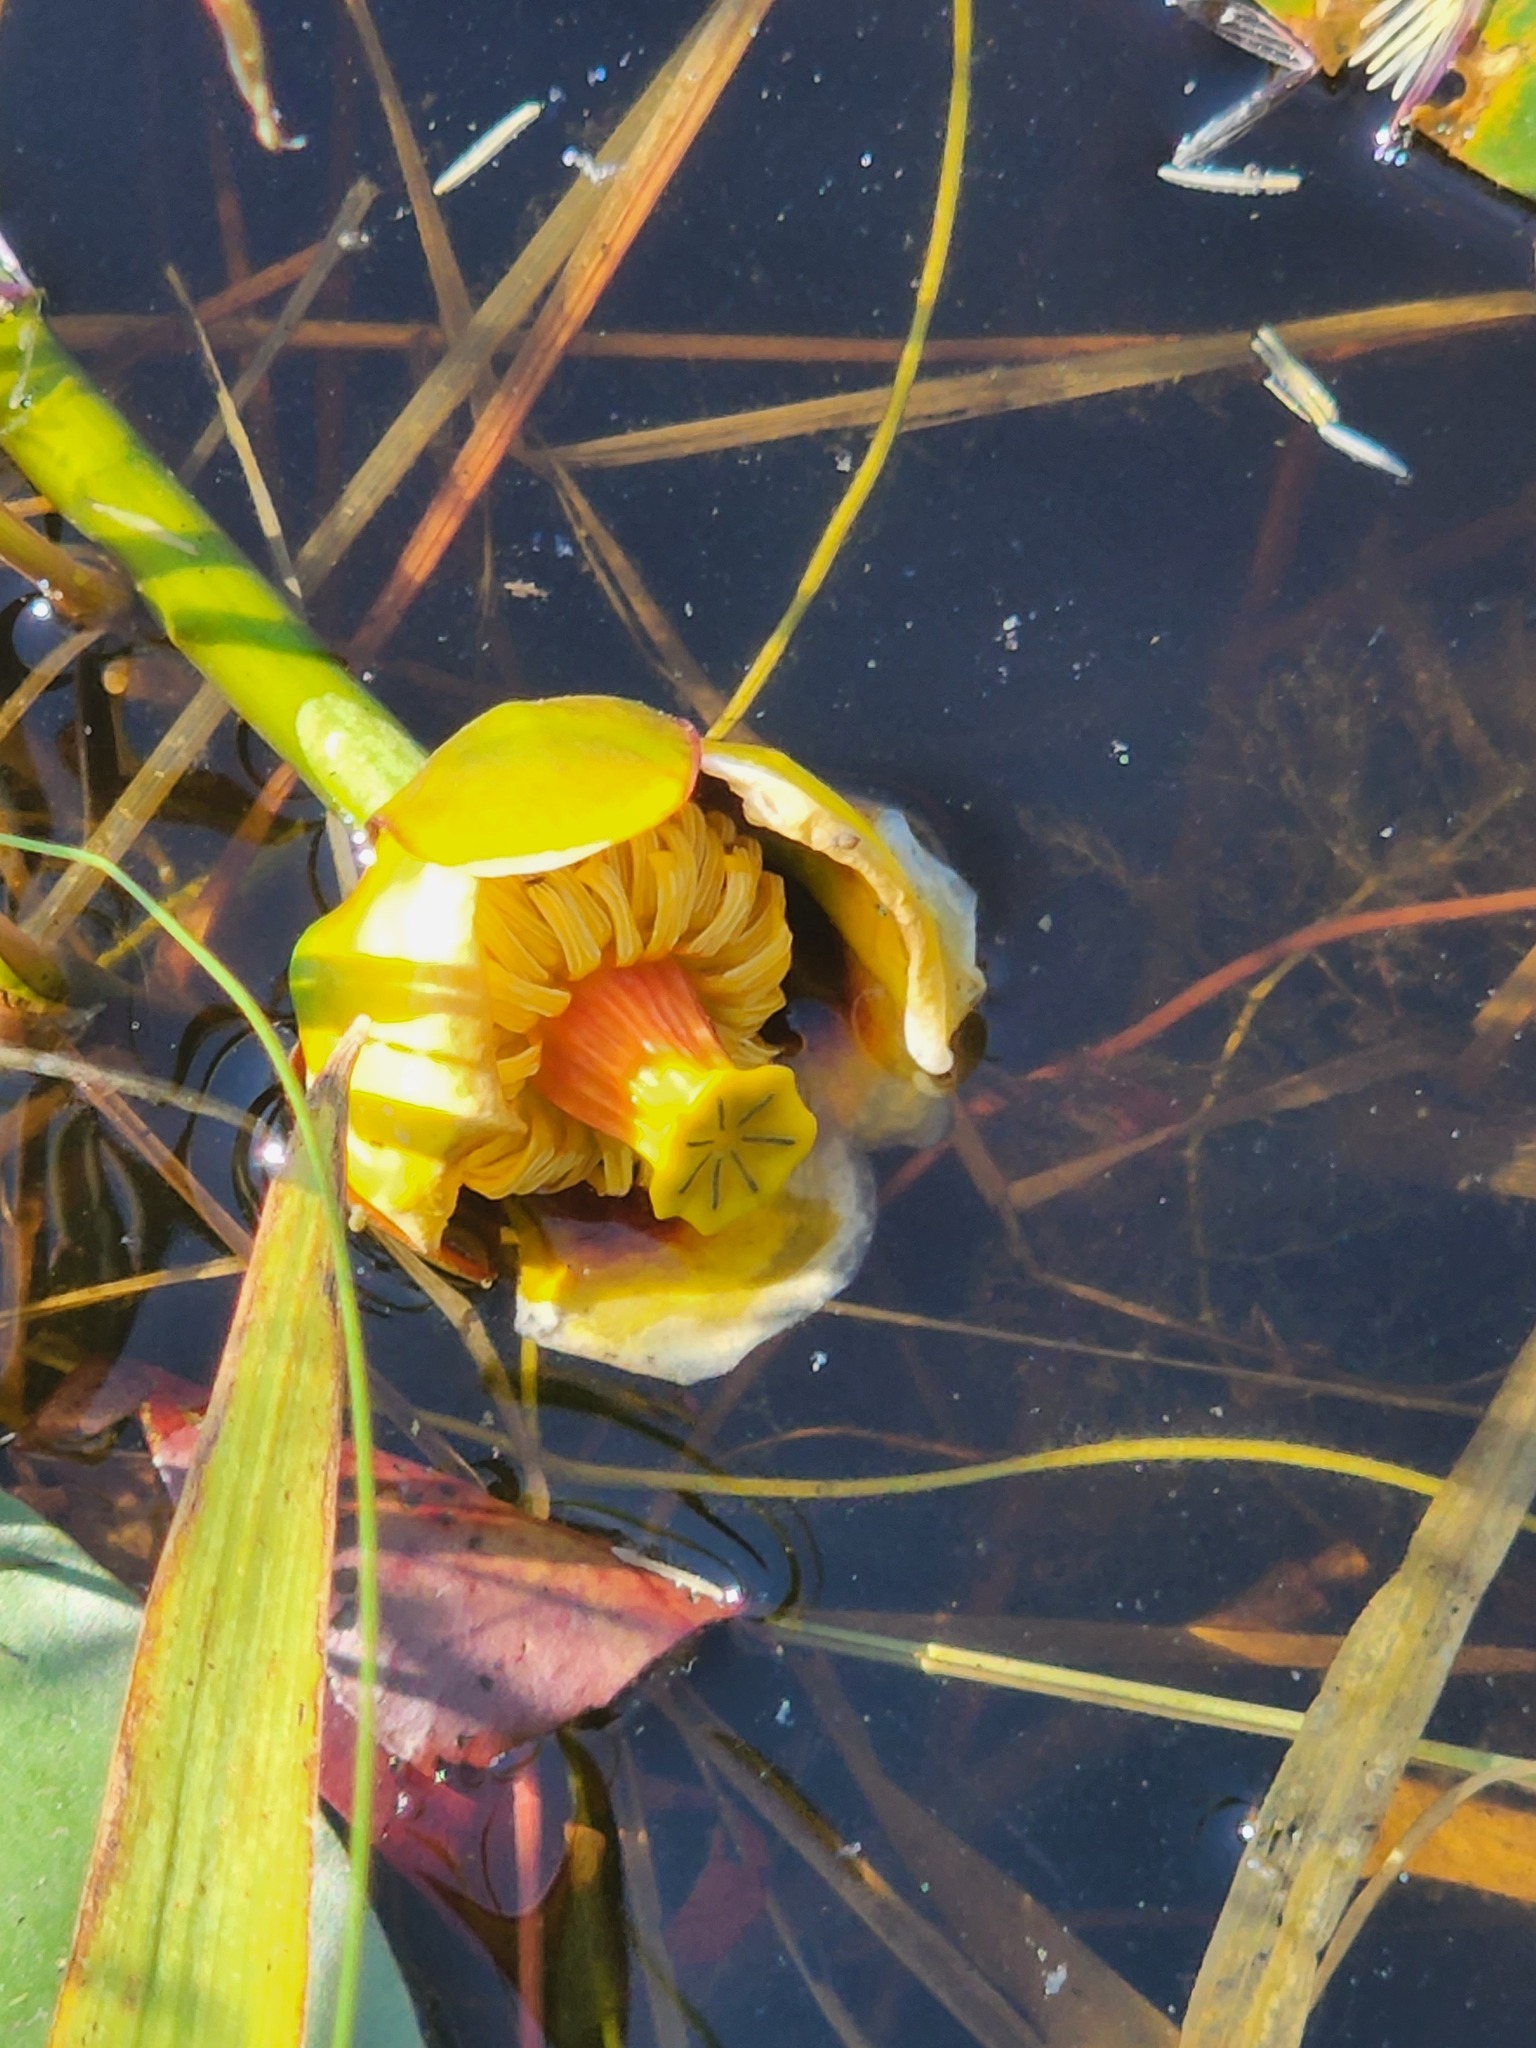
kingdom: Plantae
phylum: Tracheophyta
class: Magnoliopsida
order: Nymphaeales
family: Nymphaeaceae
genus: Nuphar
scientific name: Nuphar variegata
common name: Beaver-root
